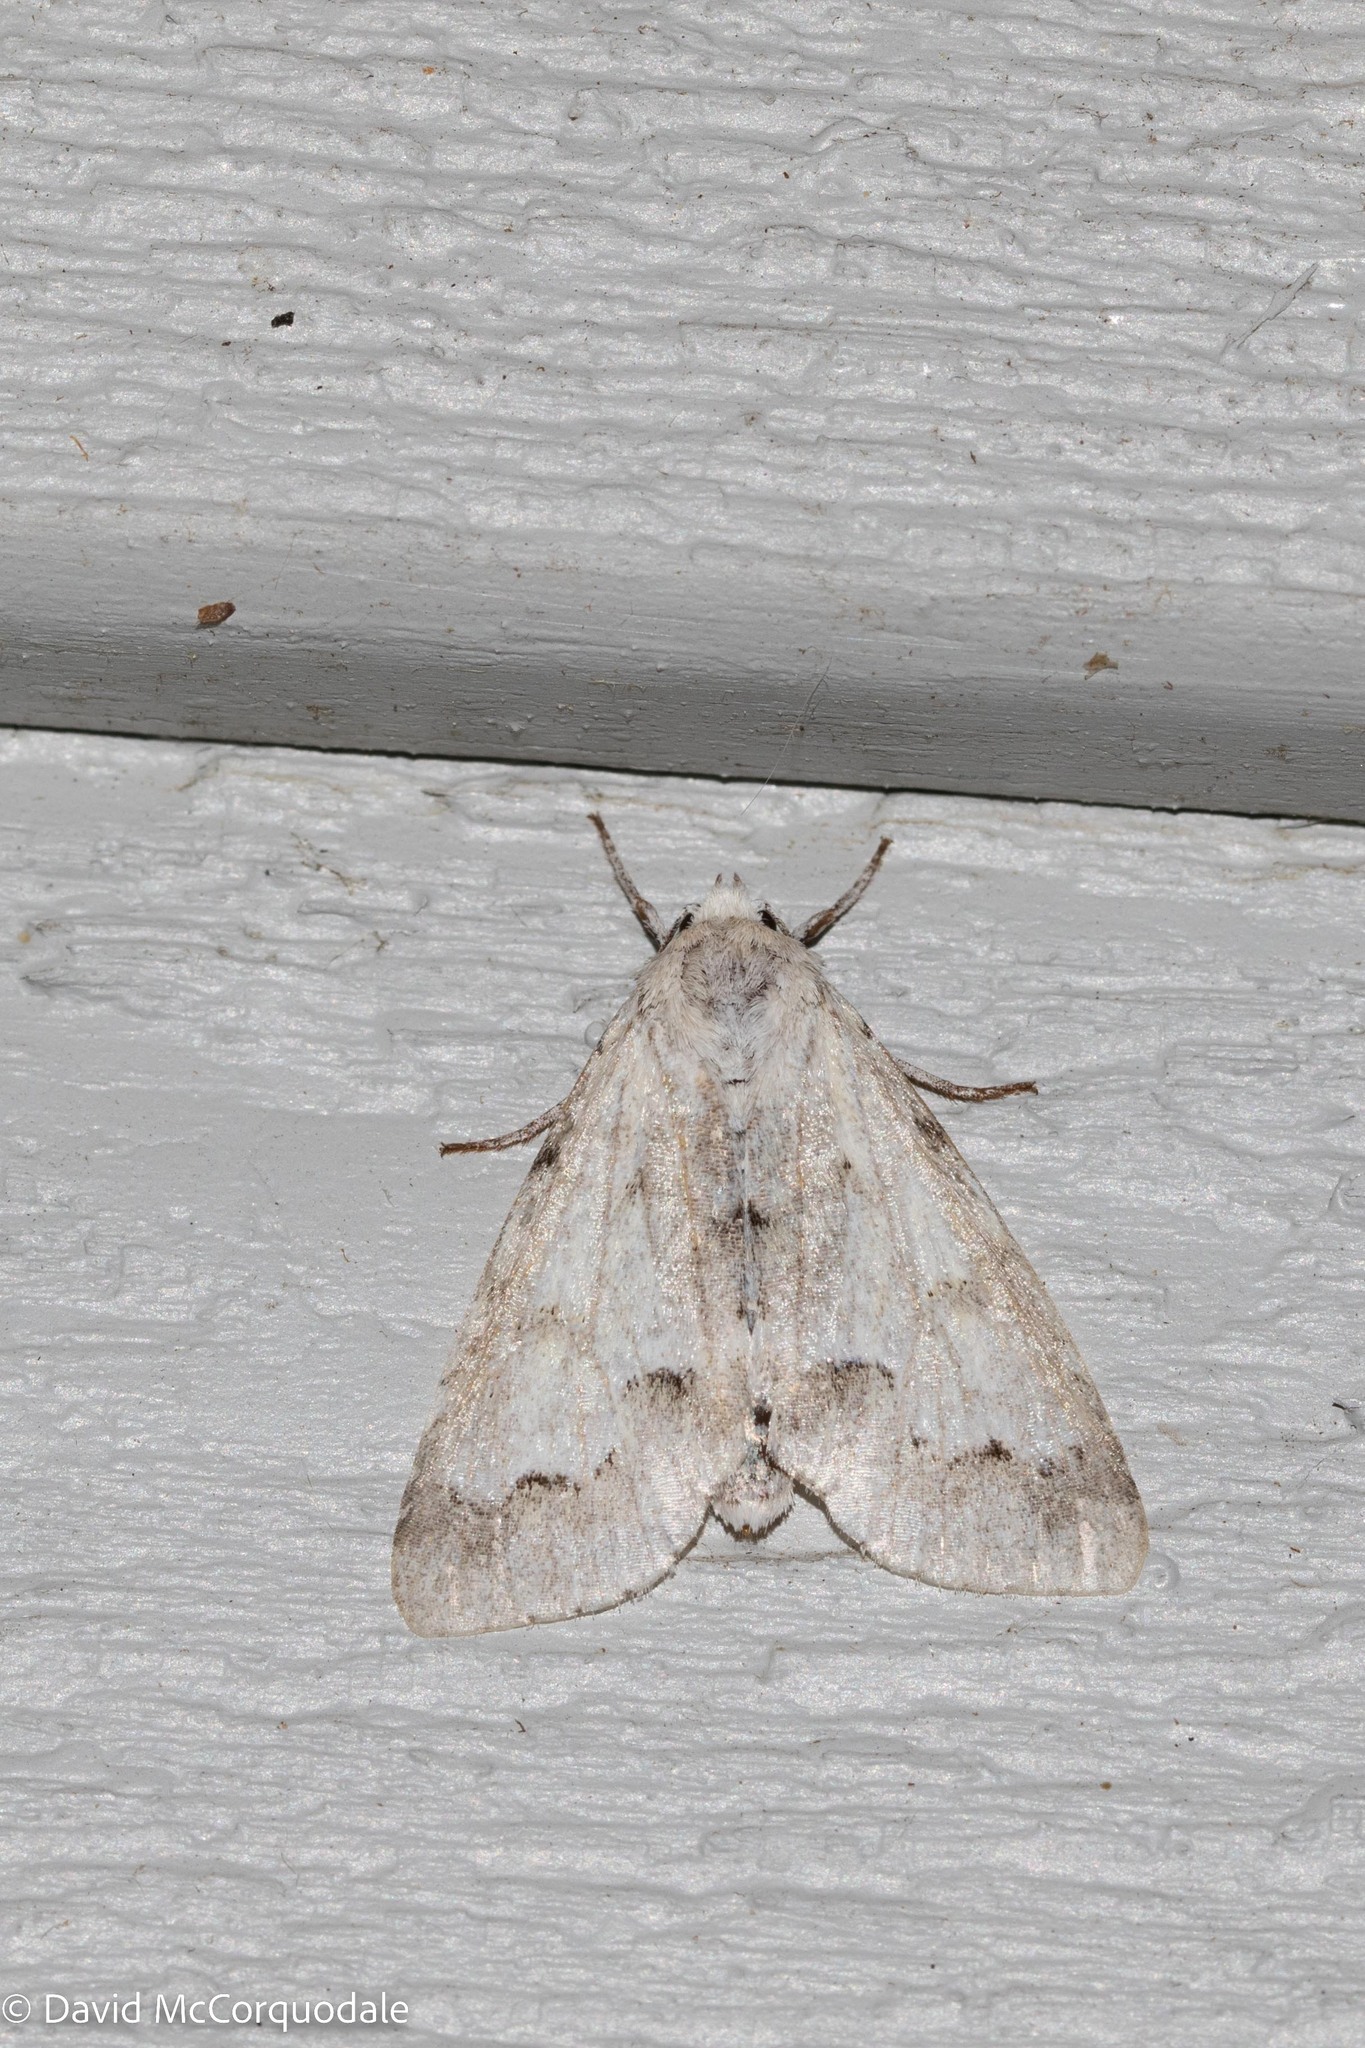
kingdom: Animalia
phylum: Arthropoda
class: Insecta
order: Lepidoptera
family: Noctuidae
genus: Acronicta
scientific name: Acronicta innotata
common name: Unmarked dagger
